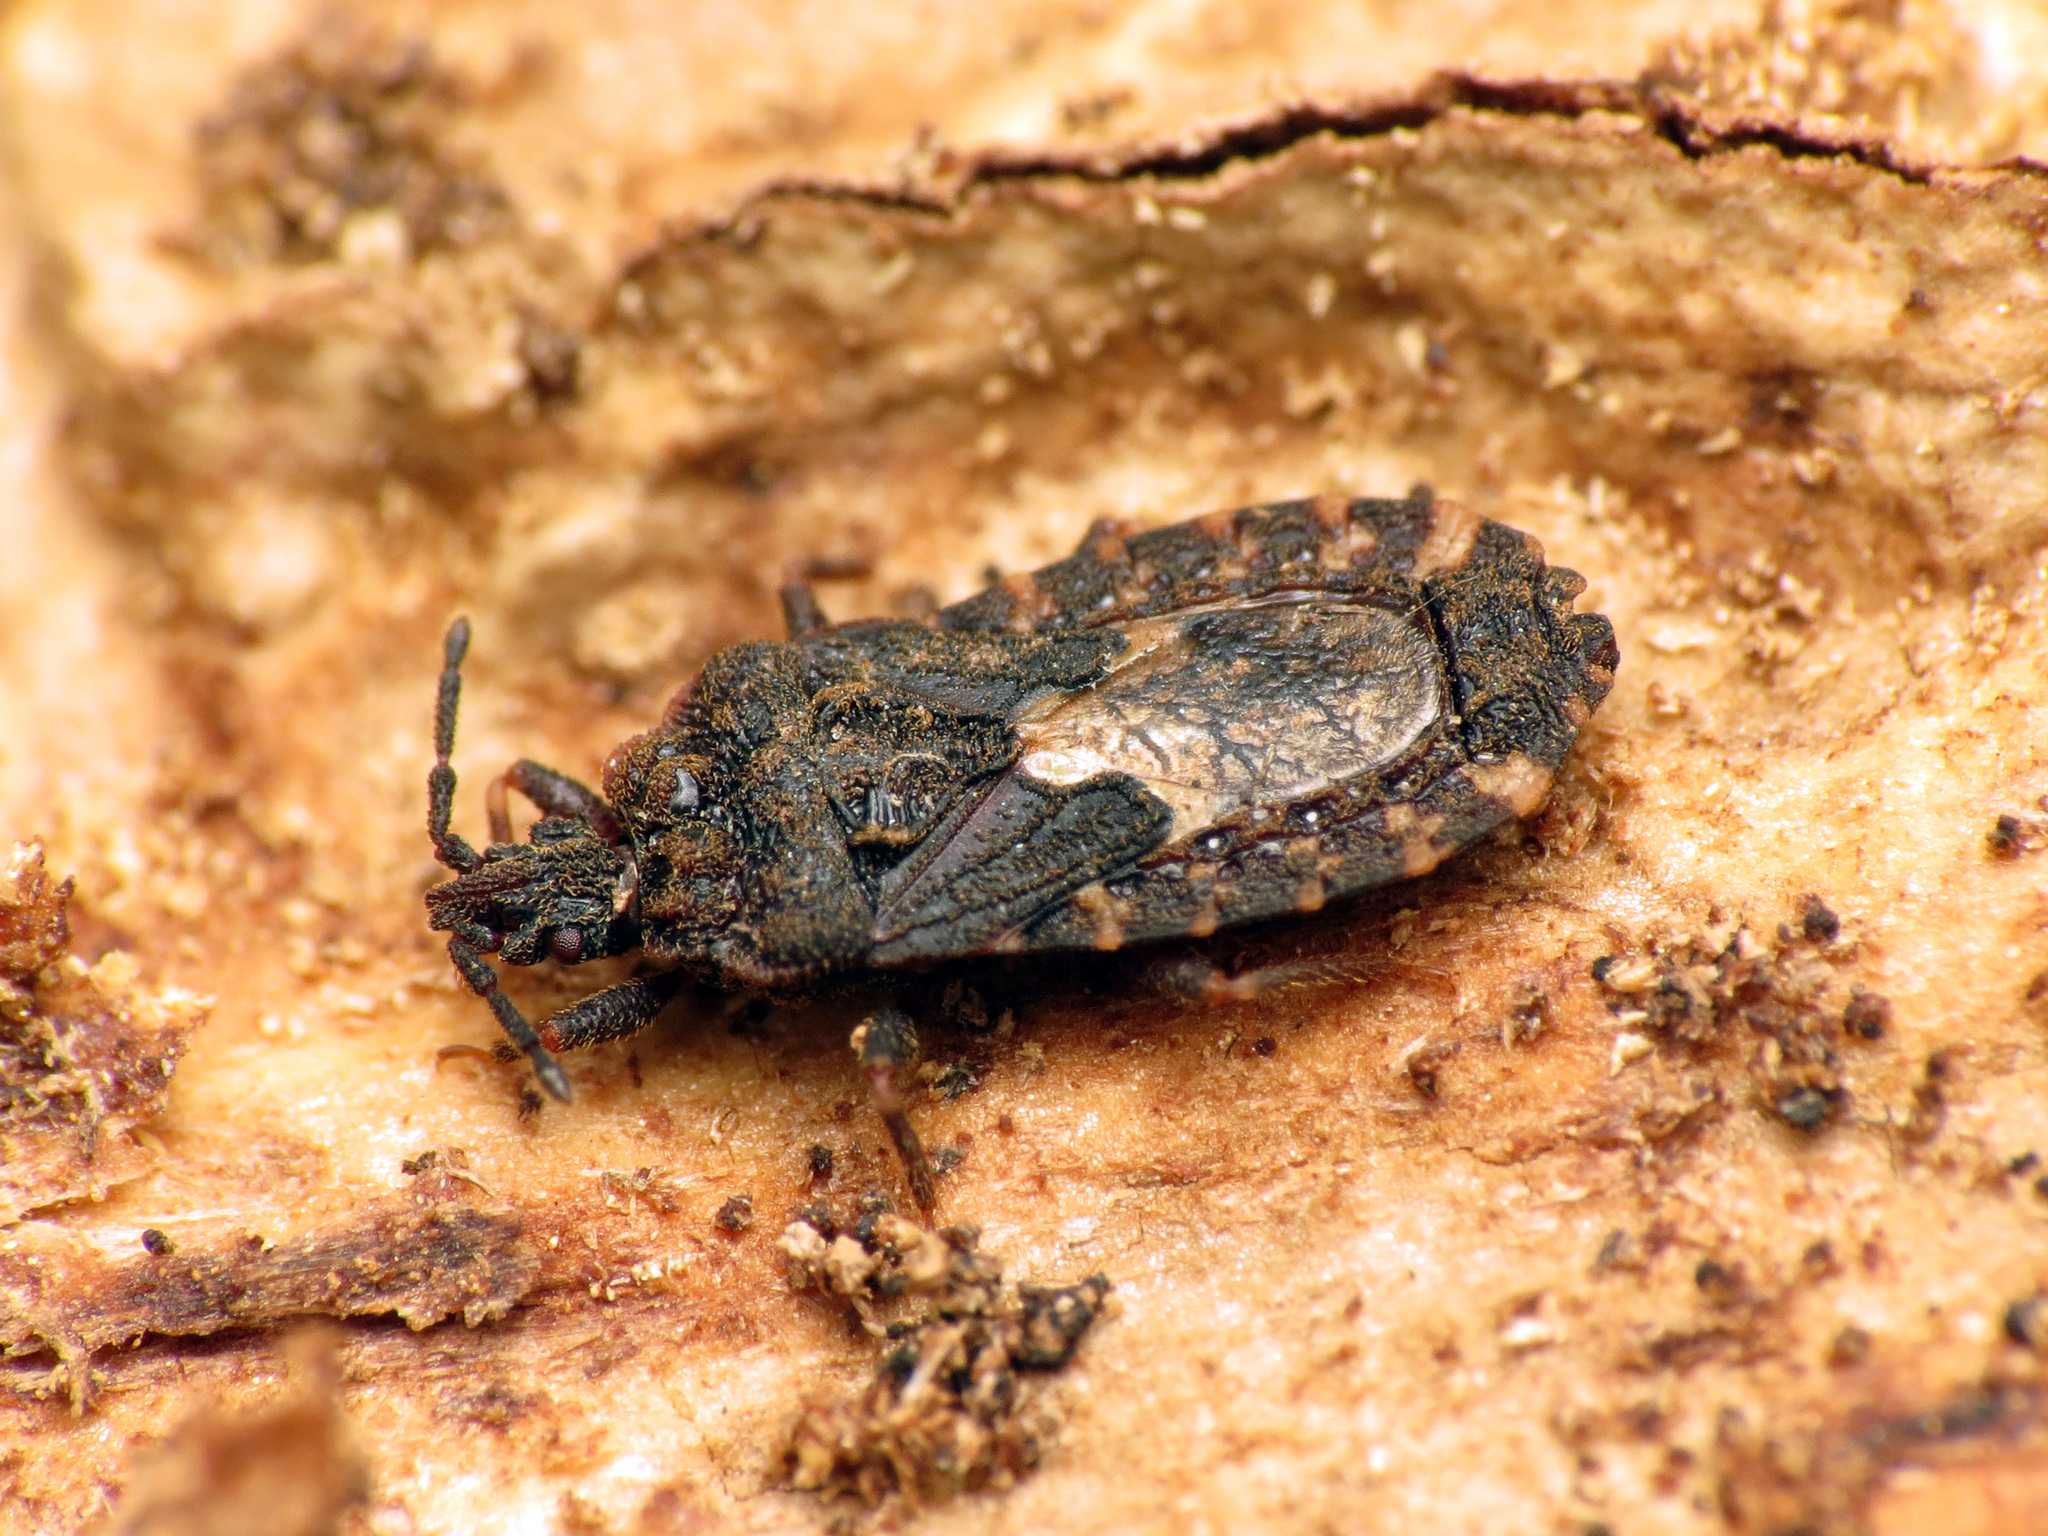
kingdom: Animalia
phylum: Arthropoda
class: Insecta
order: Hemiptera
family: Aradidae
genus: Mezira
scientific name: Mezira
